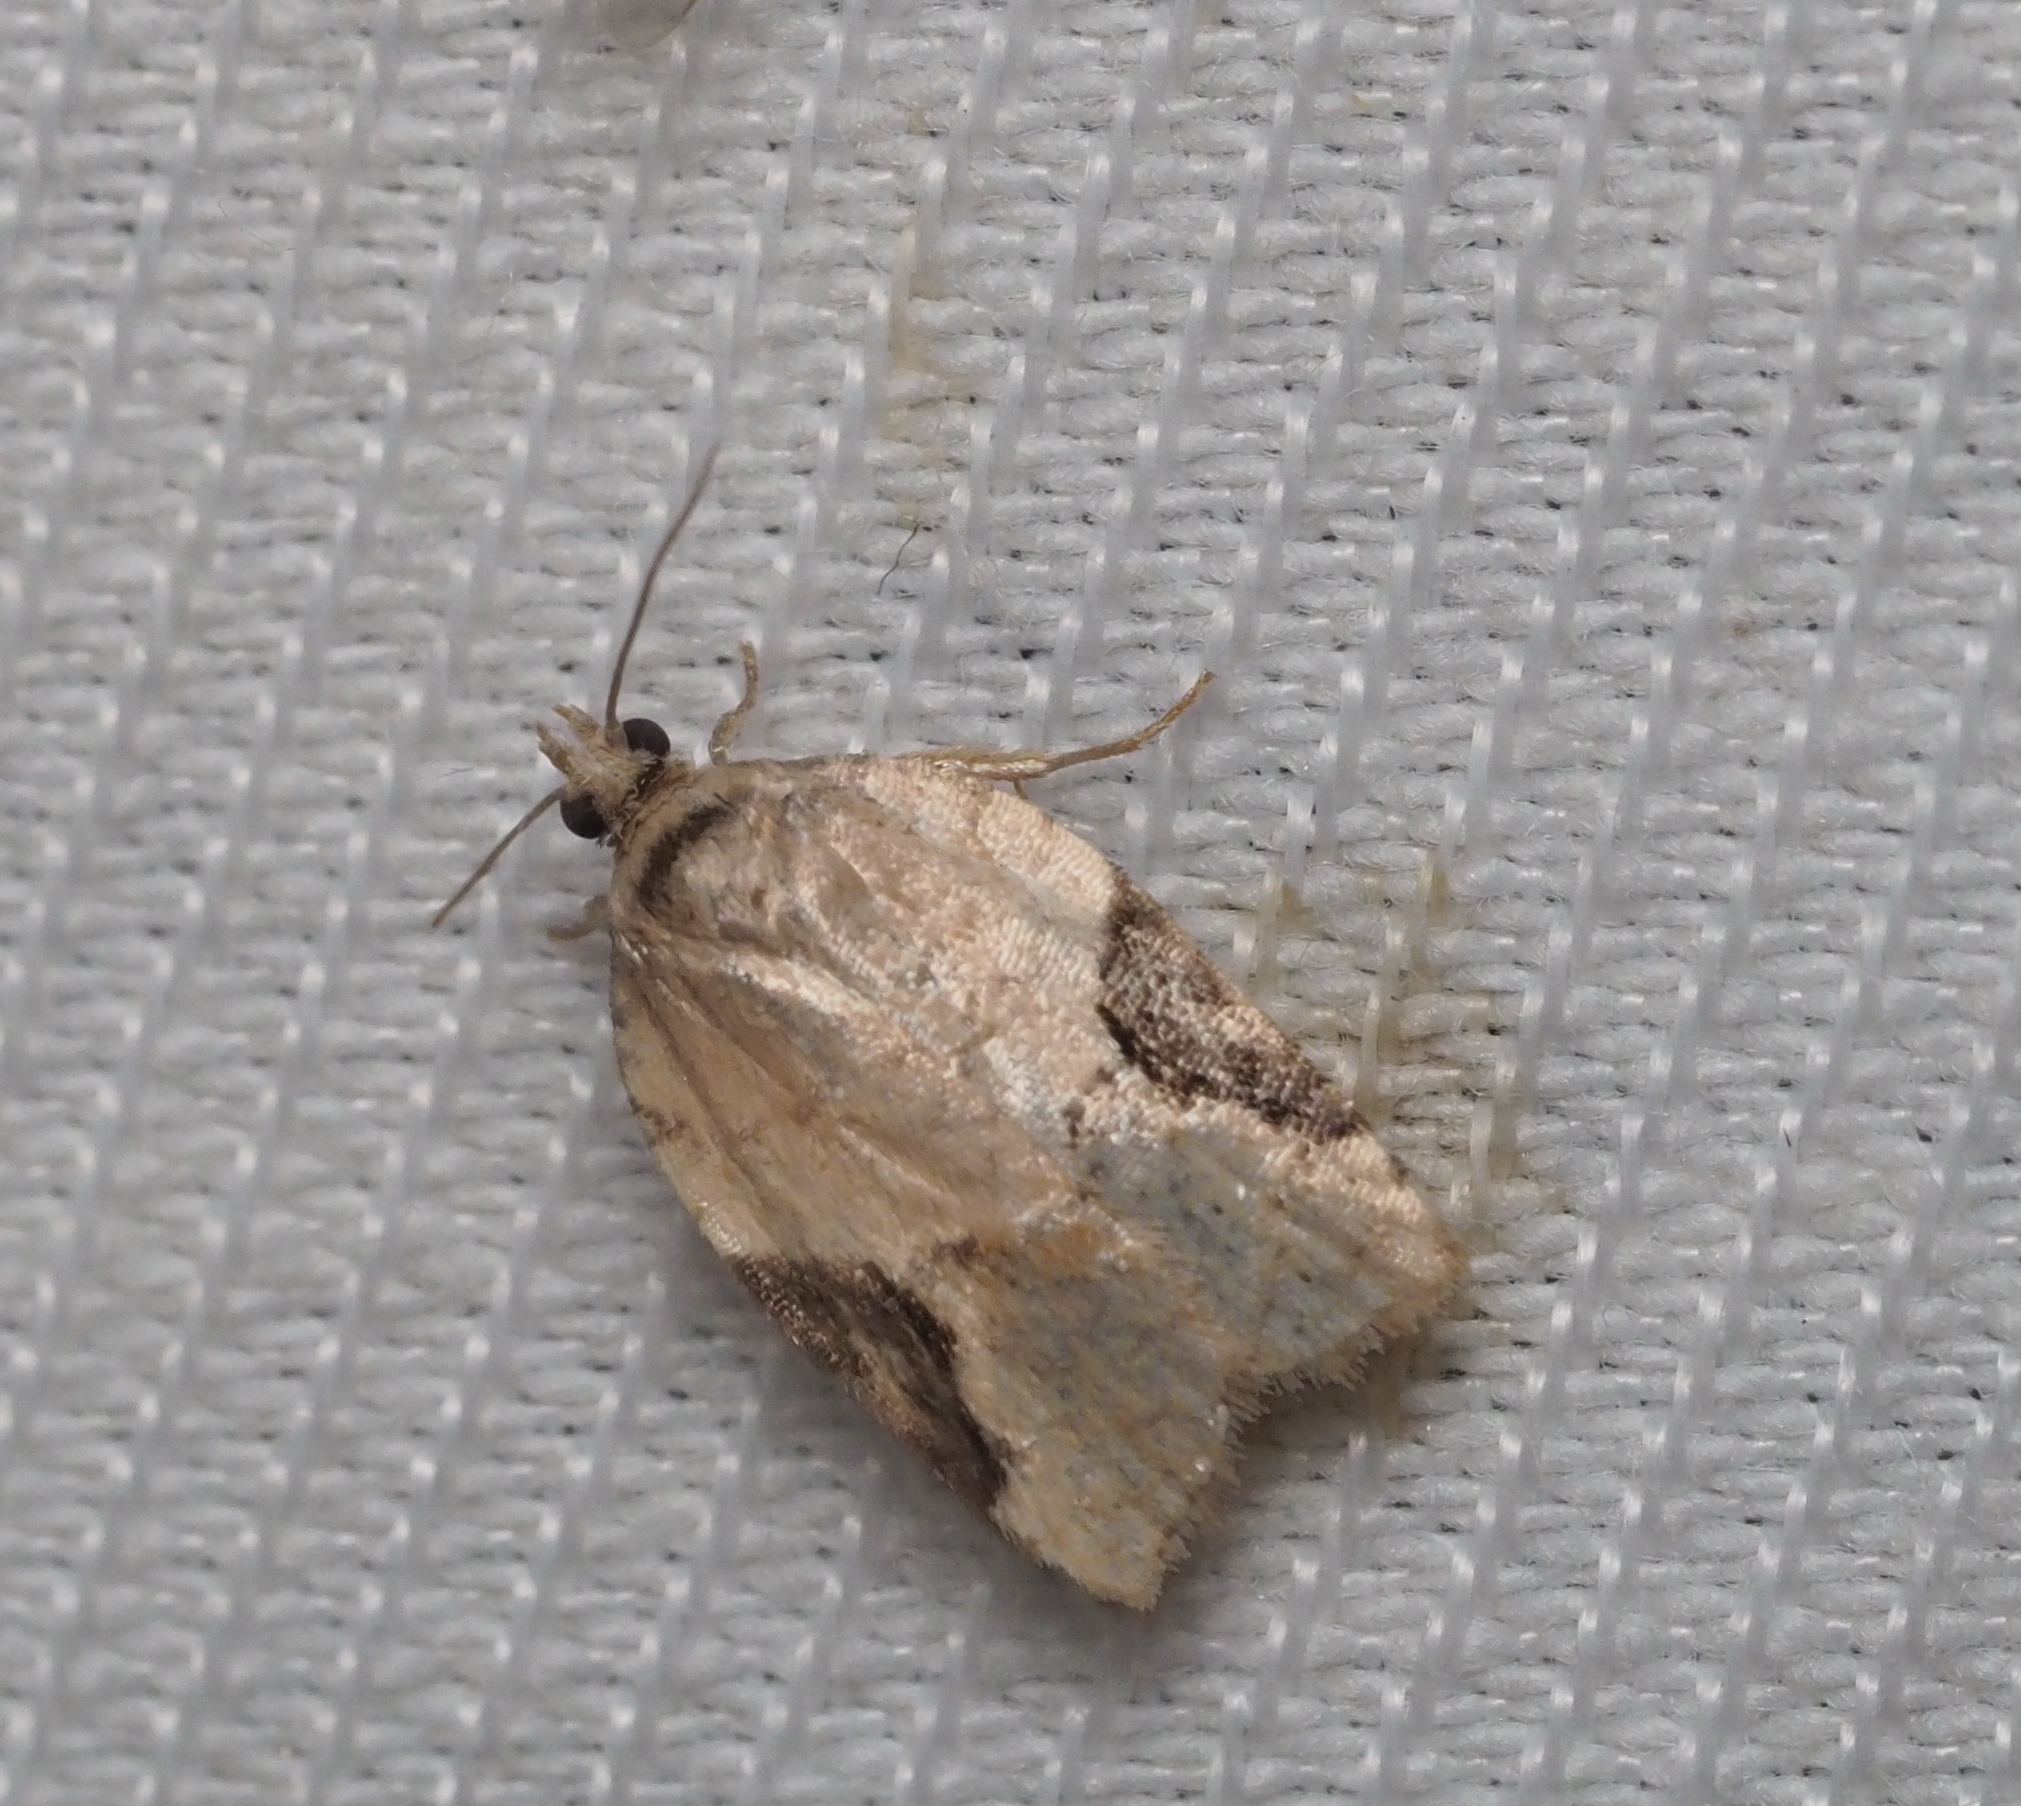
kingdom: Animalia
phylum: Arthropoda
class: Insecta
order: Lepidoptera
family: Tortricidae
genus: Acleris
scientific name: Acleris lacordairana
